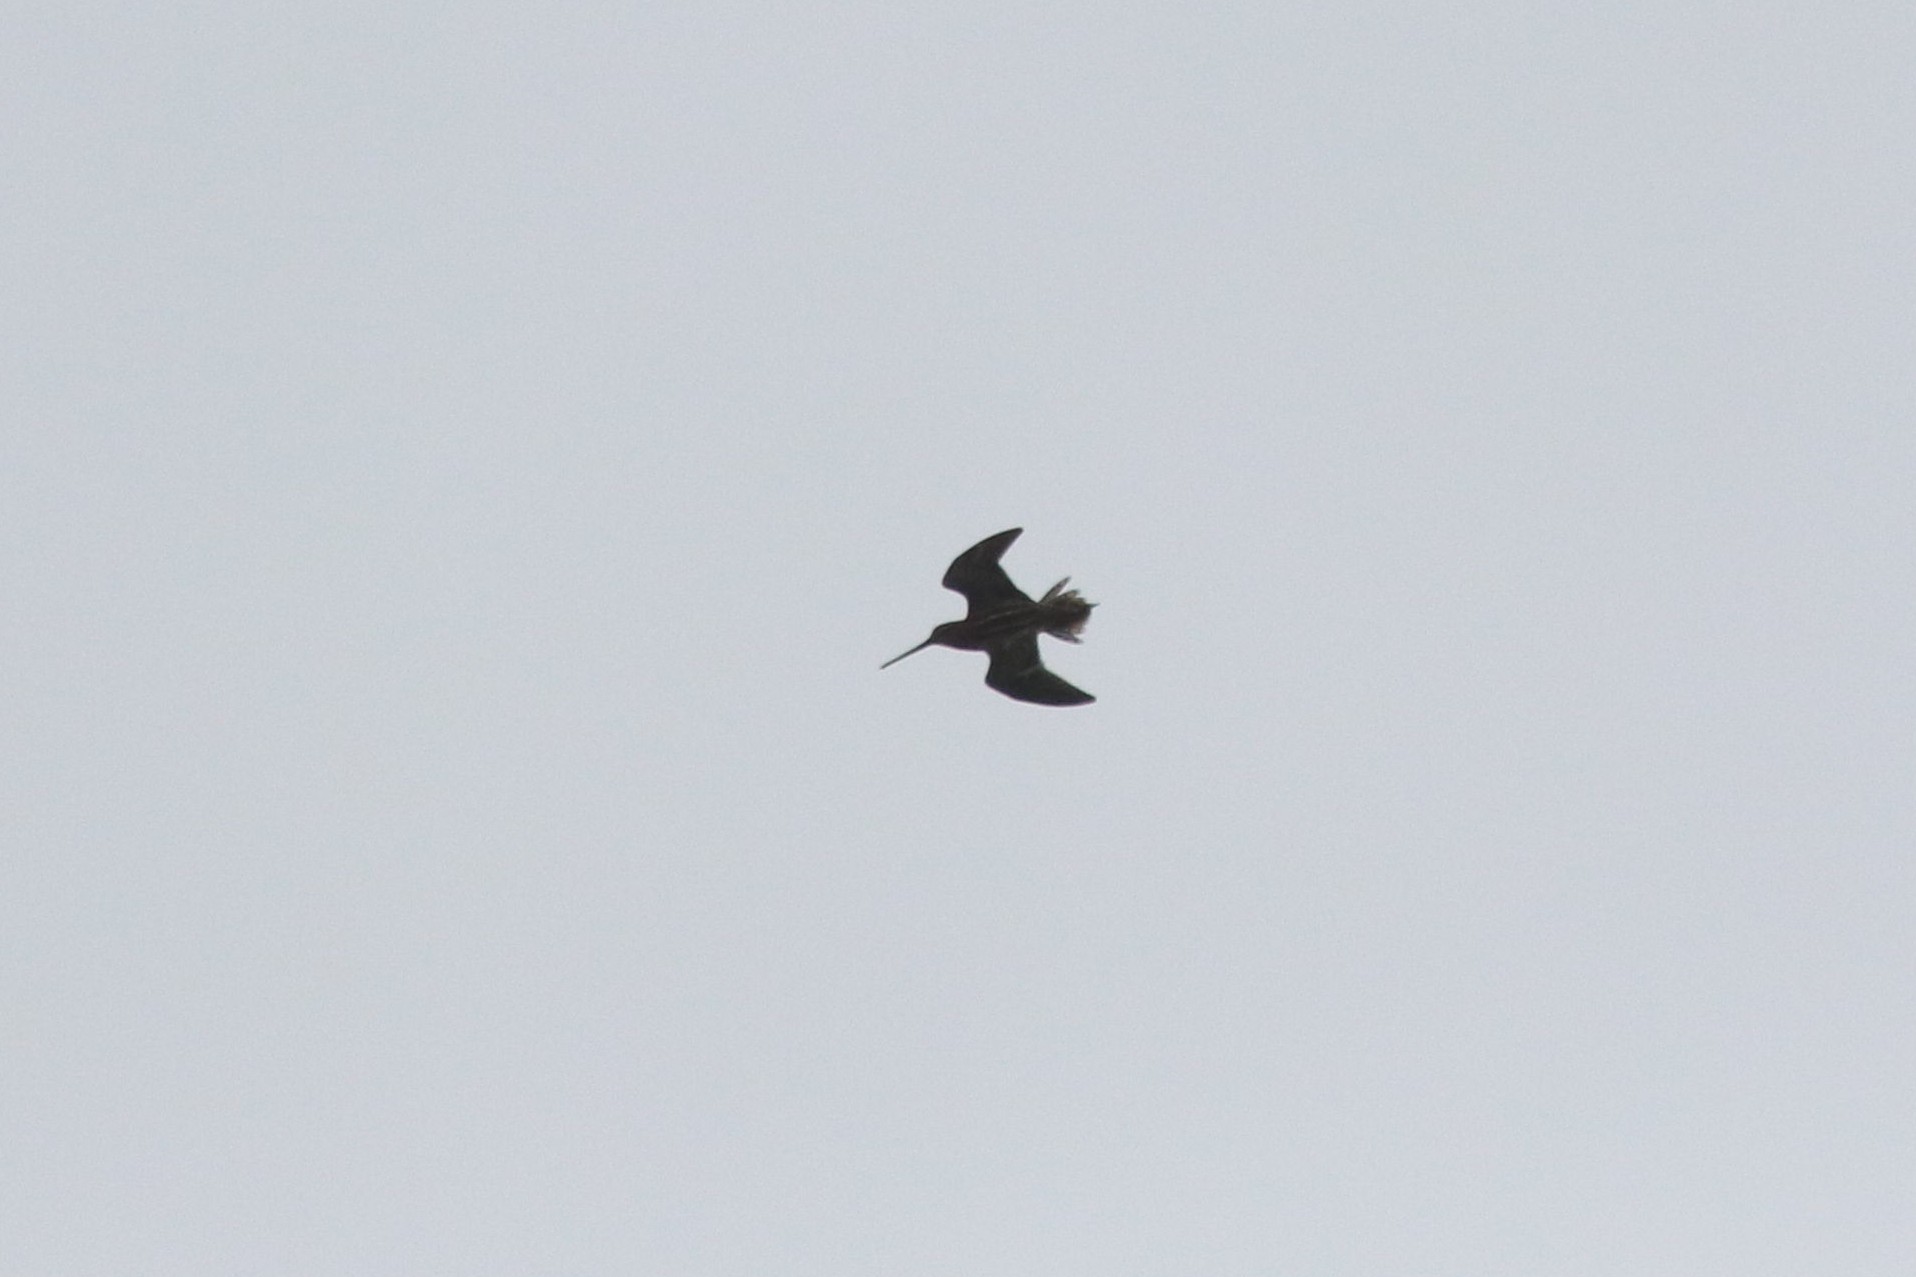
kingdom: Animalia
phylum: Chordata
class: Aves
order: Charadriiformes
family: Scolopacidae
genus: Gallinago
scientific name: Gallinago gallinago
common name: Common snipe
